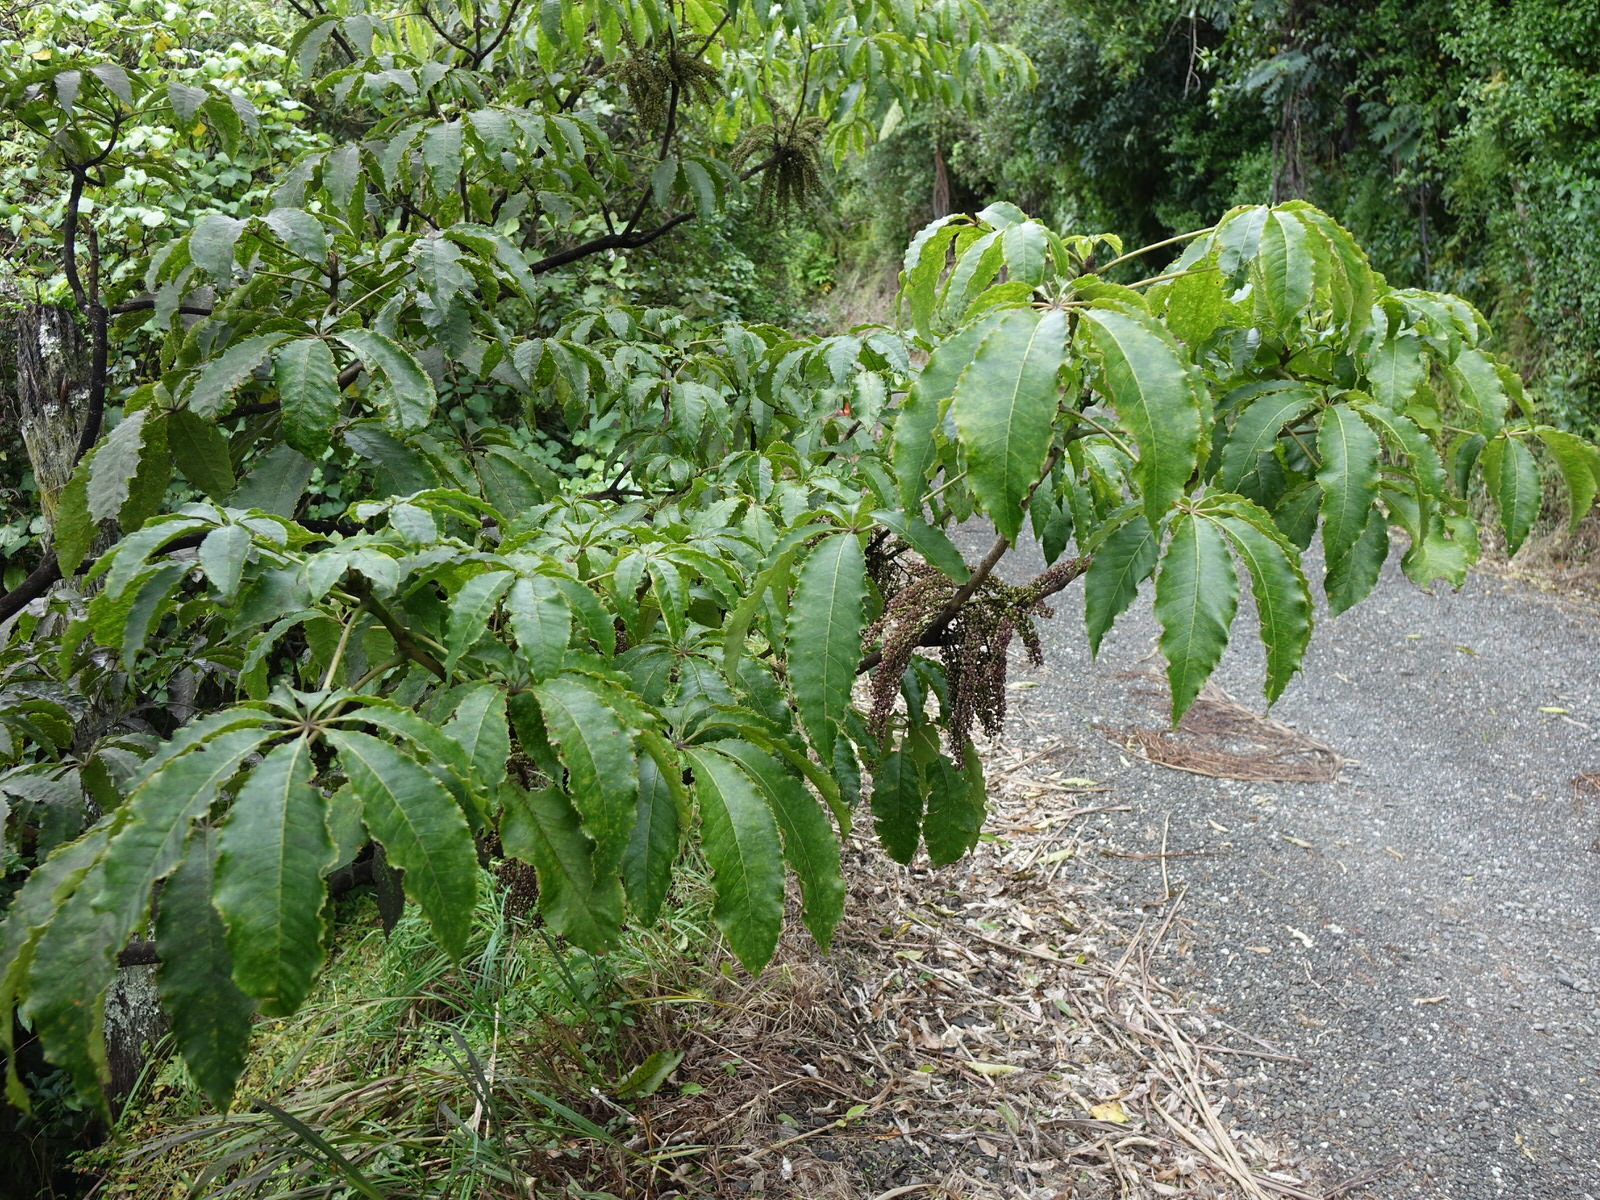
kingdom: Plantae
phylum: Tracheophyta
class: Magnoliopsida
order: Apiales
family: Araliaceae
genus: Schefflera
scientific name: Schefflera digitata
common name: Pate
